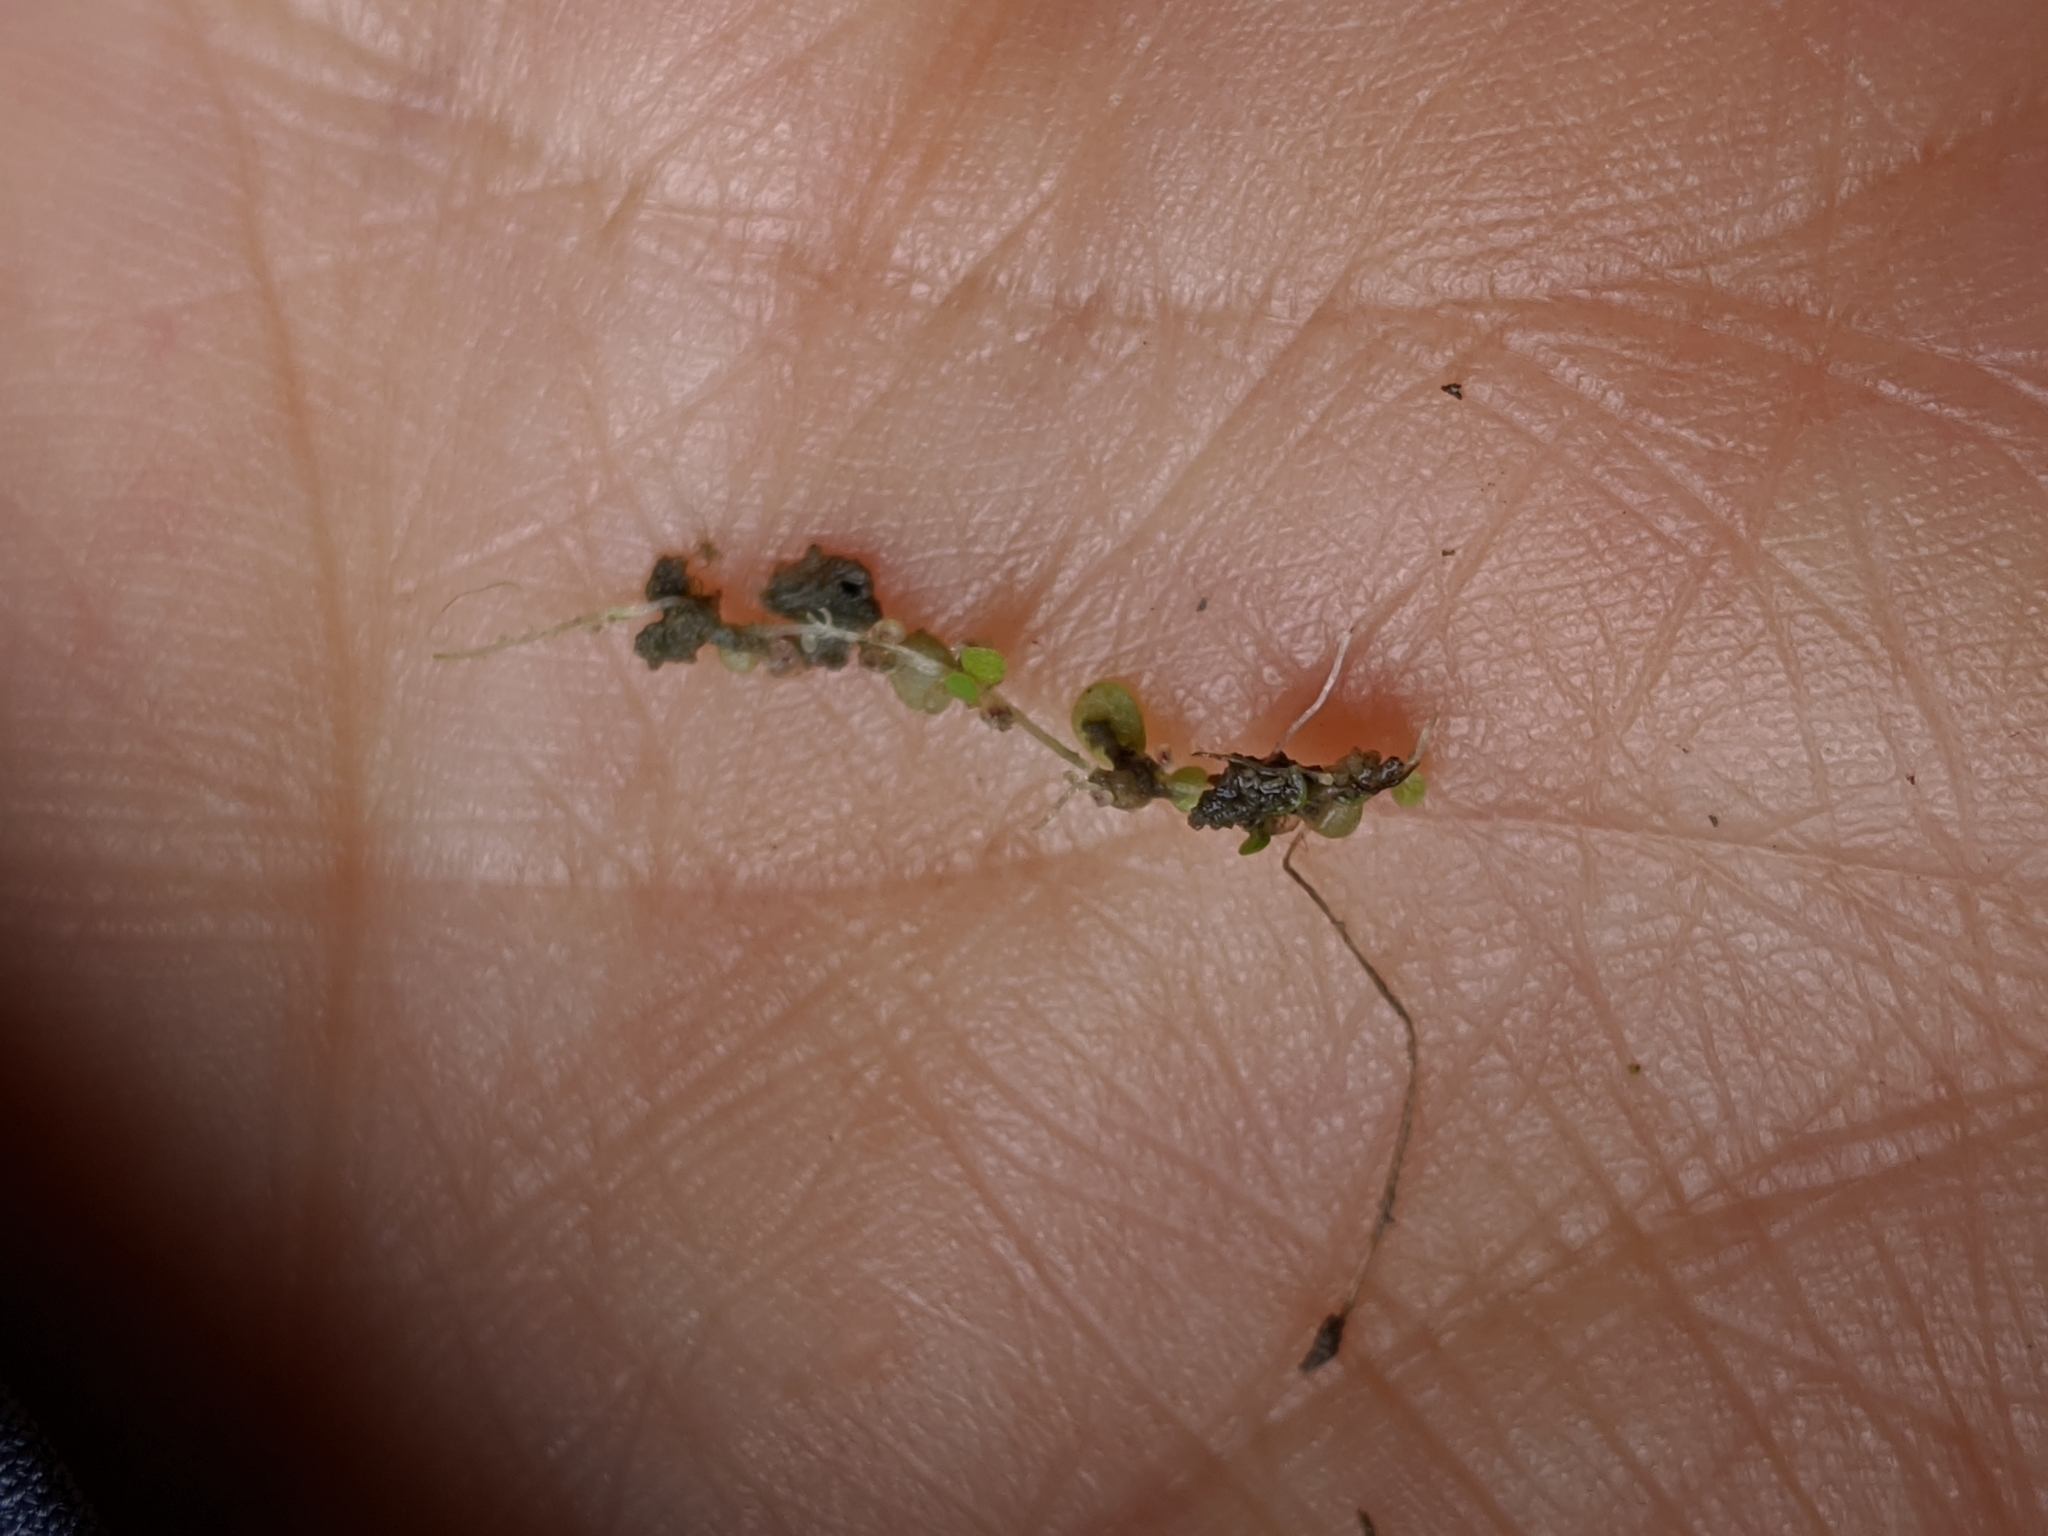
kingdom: Plantae
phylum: Tracheophyta
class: Magnoliopsida
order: Lamiales
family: Lentibulariaceae
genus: Utricularia
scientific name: Utricularia striatula
